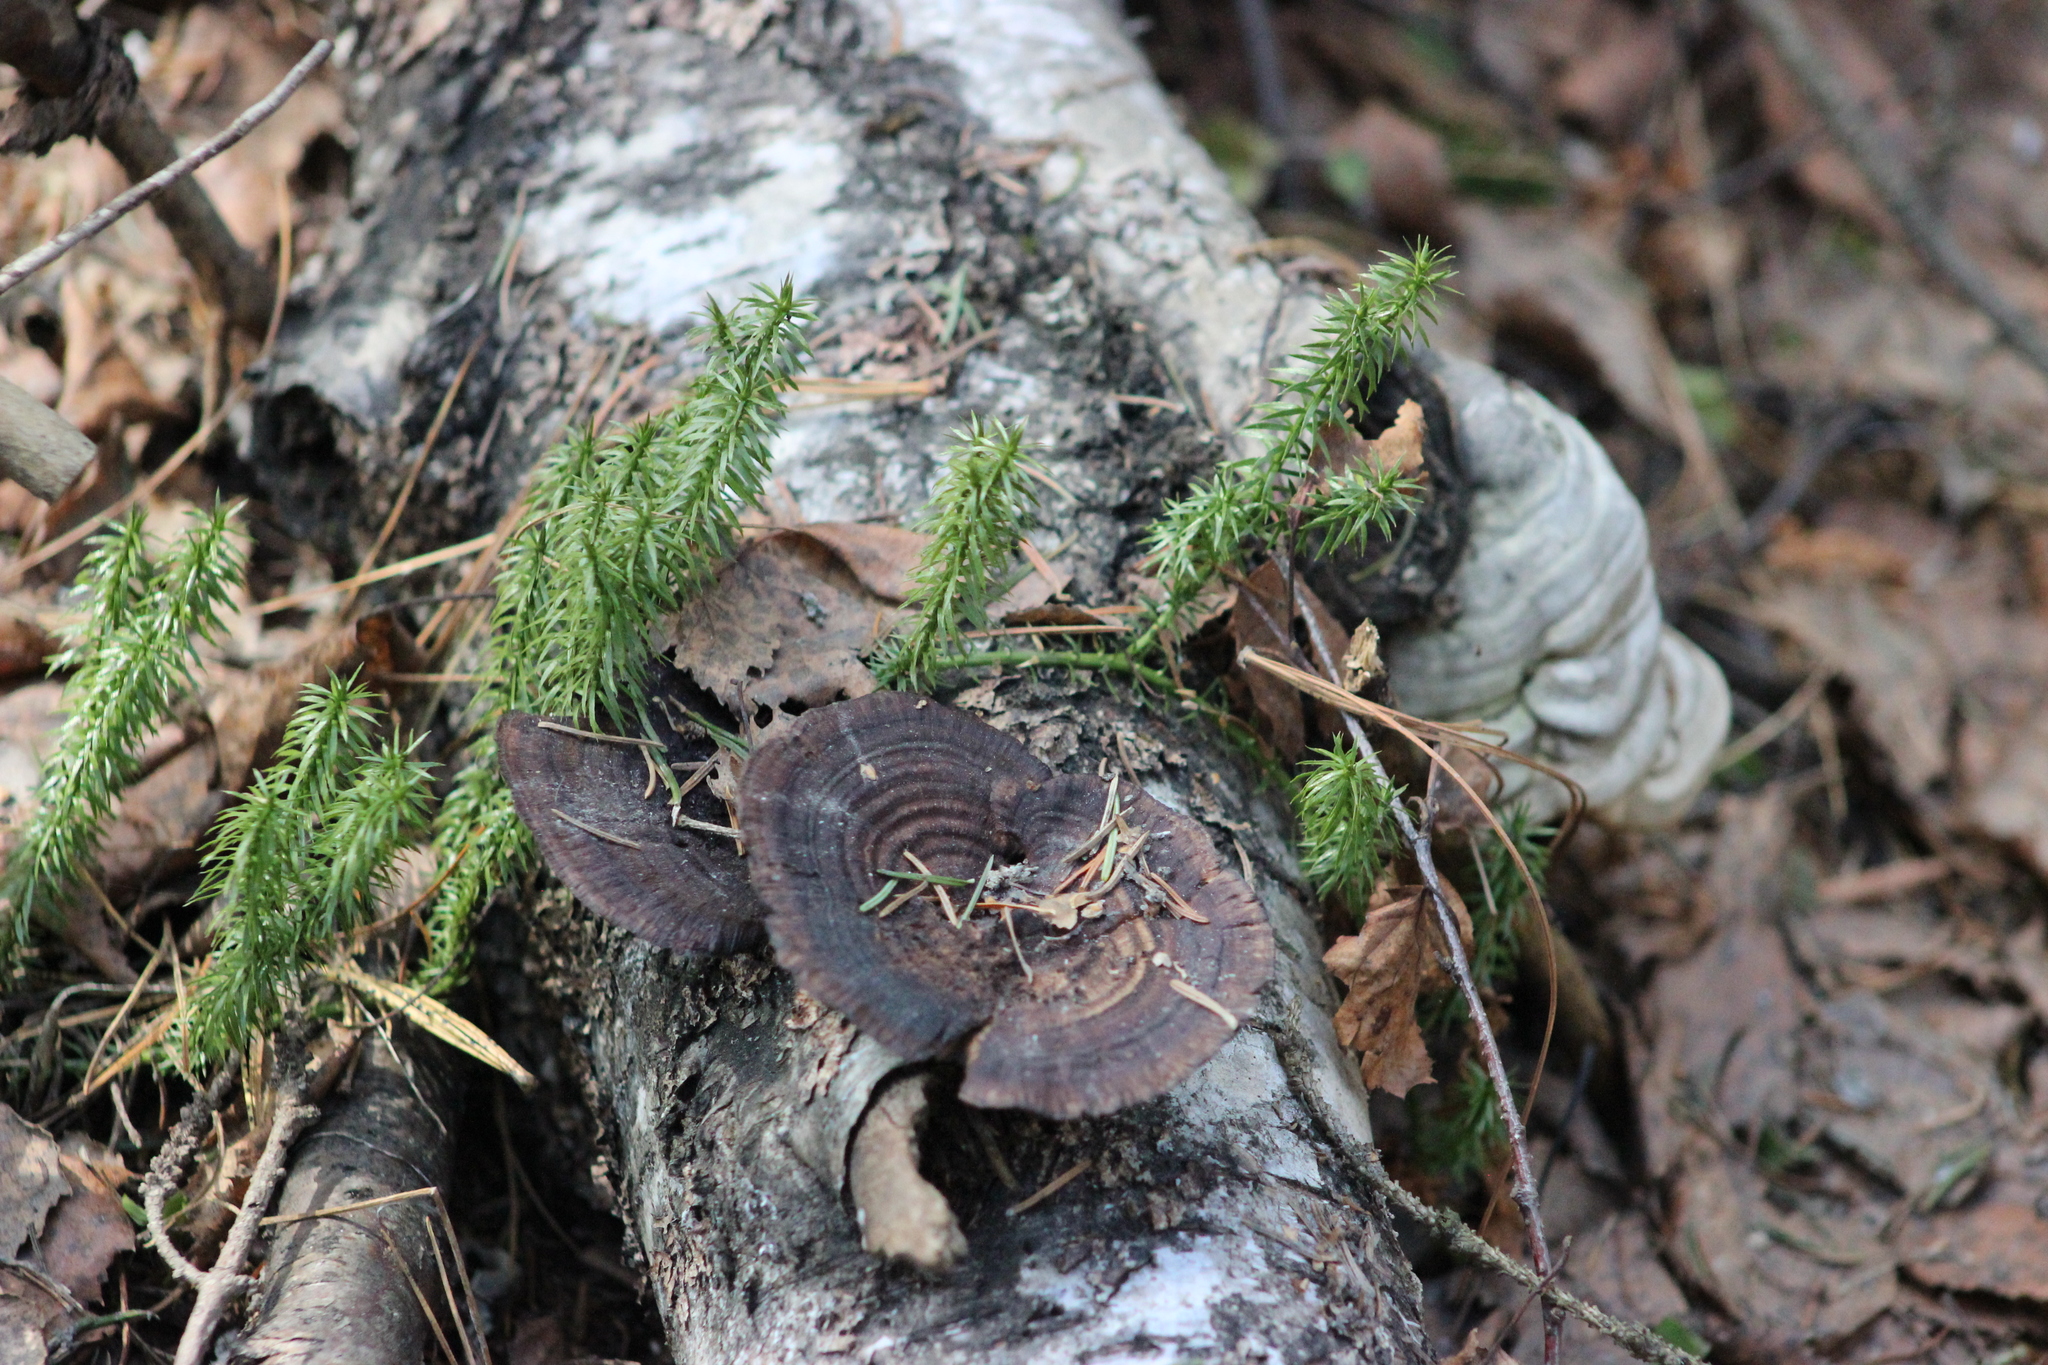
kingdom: Fungi
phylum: Basidiomycota
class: Agaricomycetes
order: Polyporales
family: Polyporaceae
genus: Daedaleopsis
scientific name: Daedaleopsis confragosa
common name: Blushing bracket
